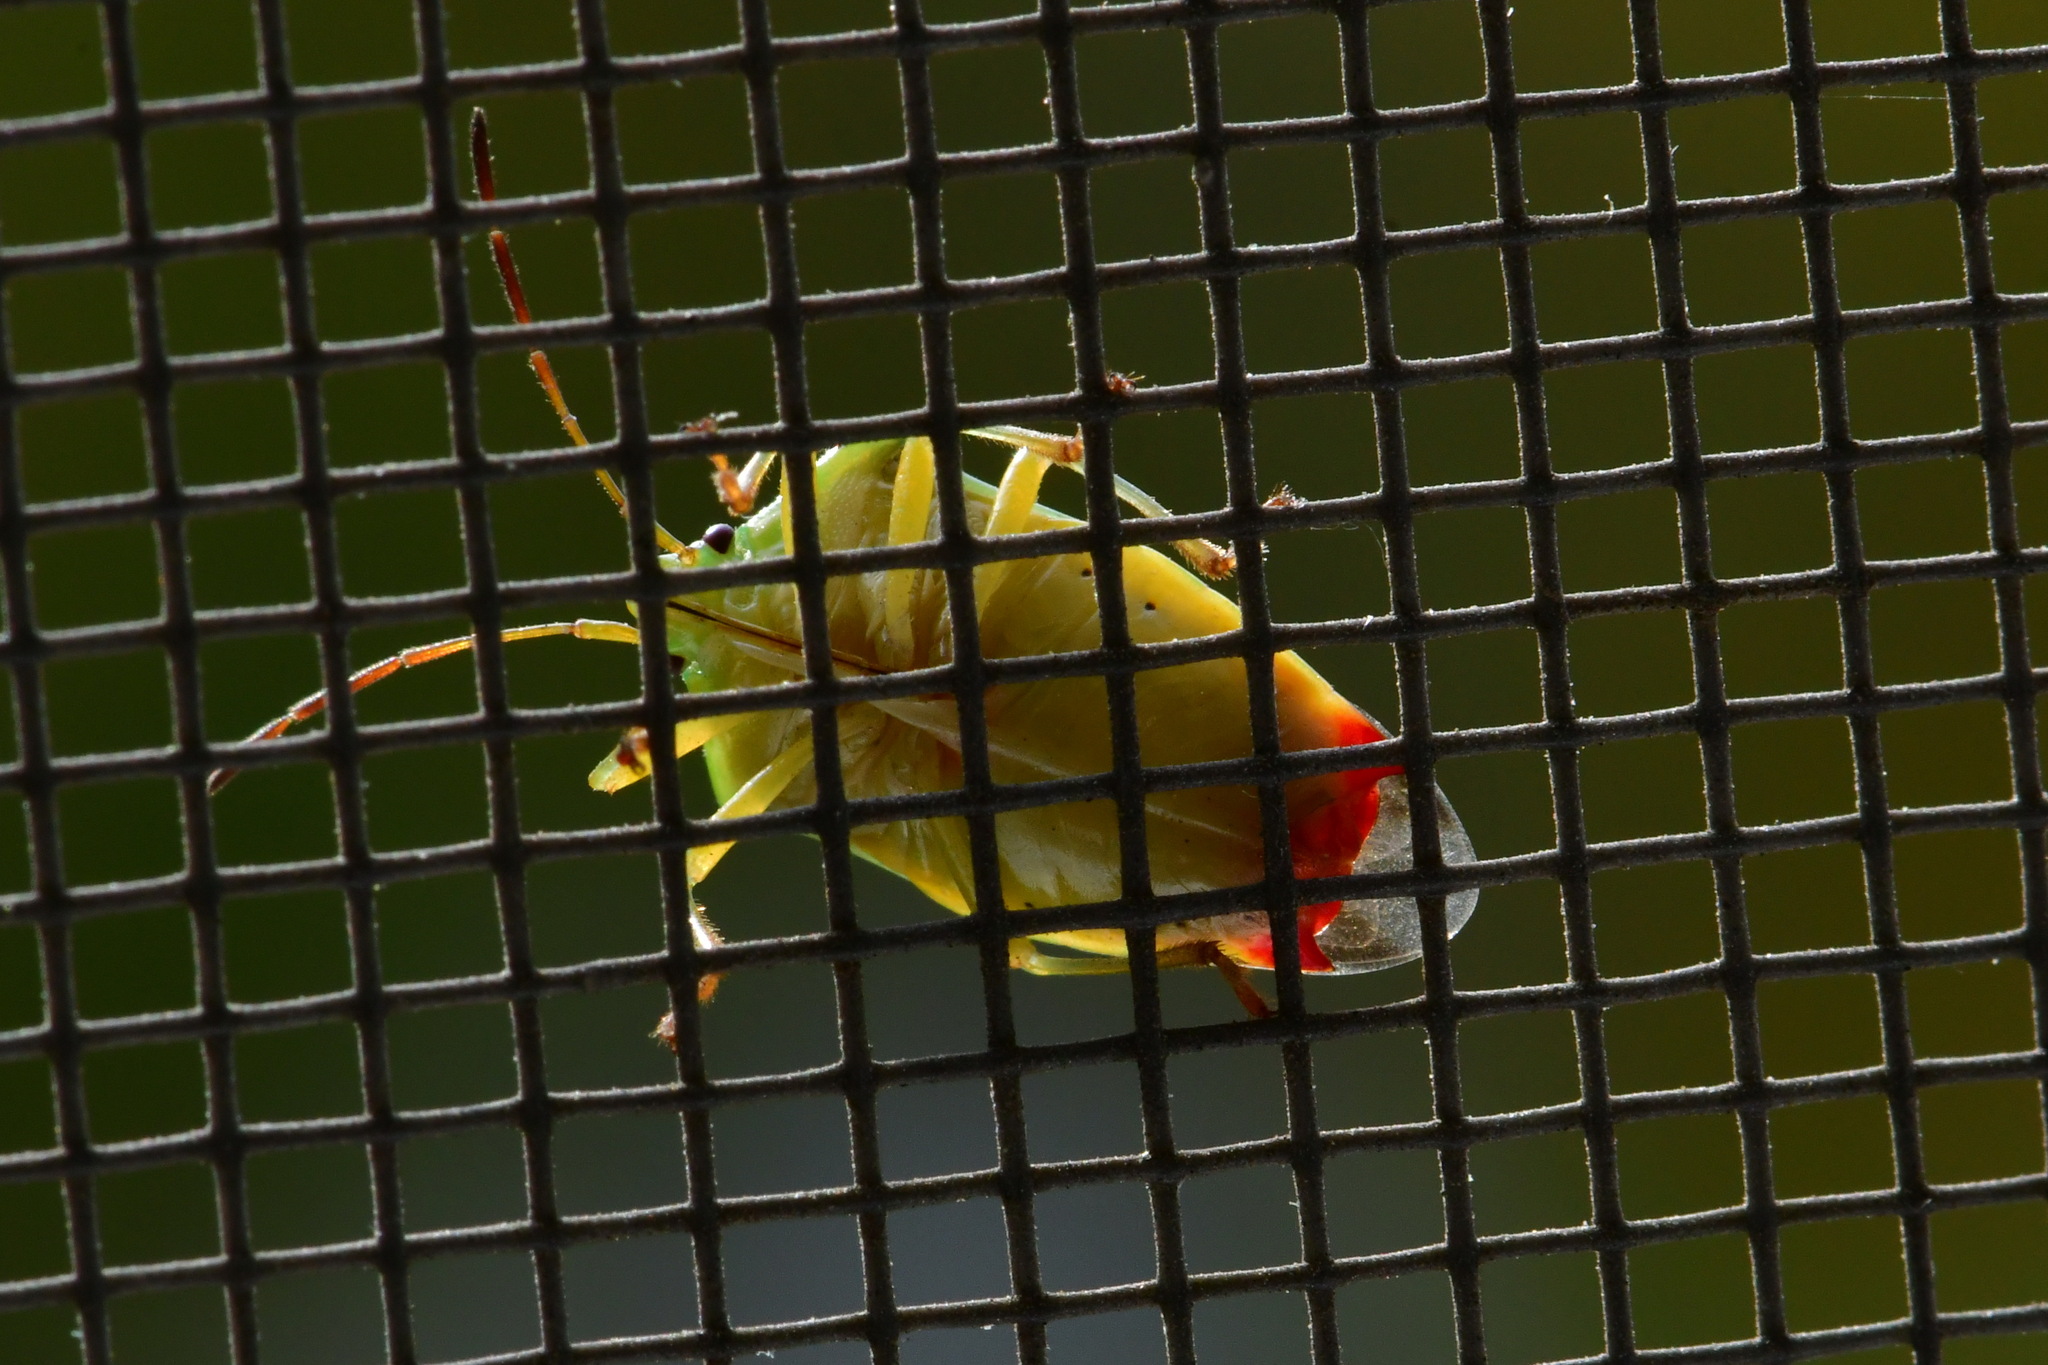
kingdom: Animalia
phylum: Arthropoda
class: Insecta
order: Hemiptera
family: Acanthosomatidae
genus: Elasmostethus
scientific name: Elasmostethus interstinctus
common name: Birch shieldbug
